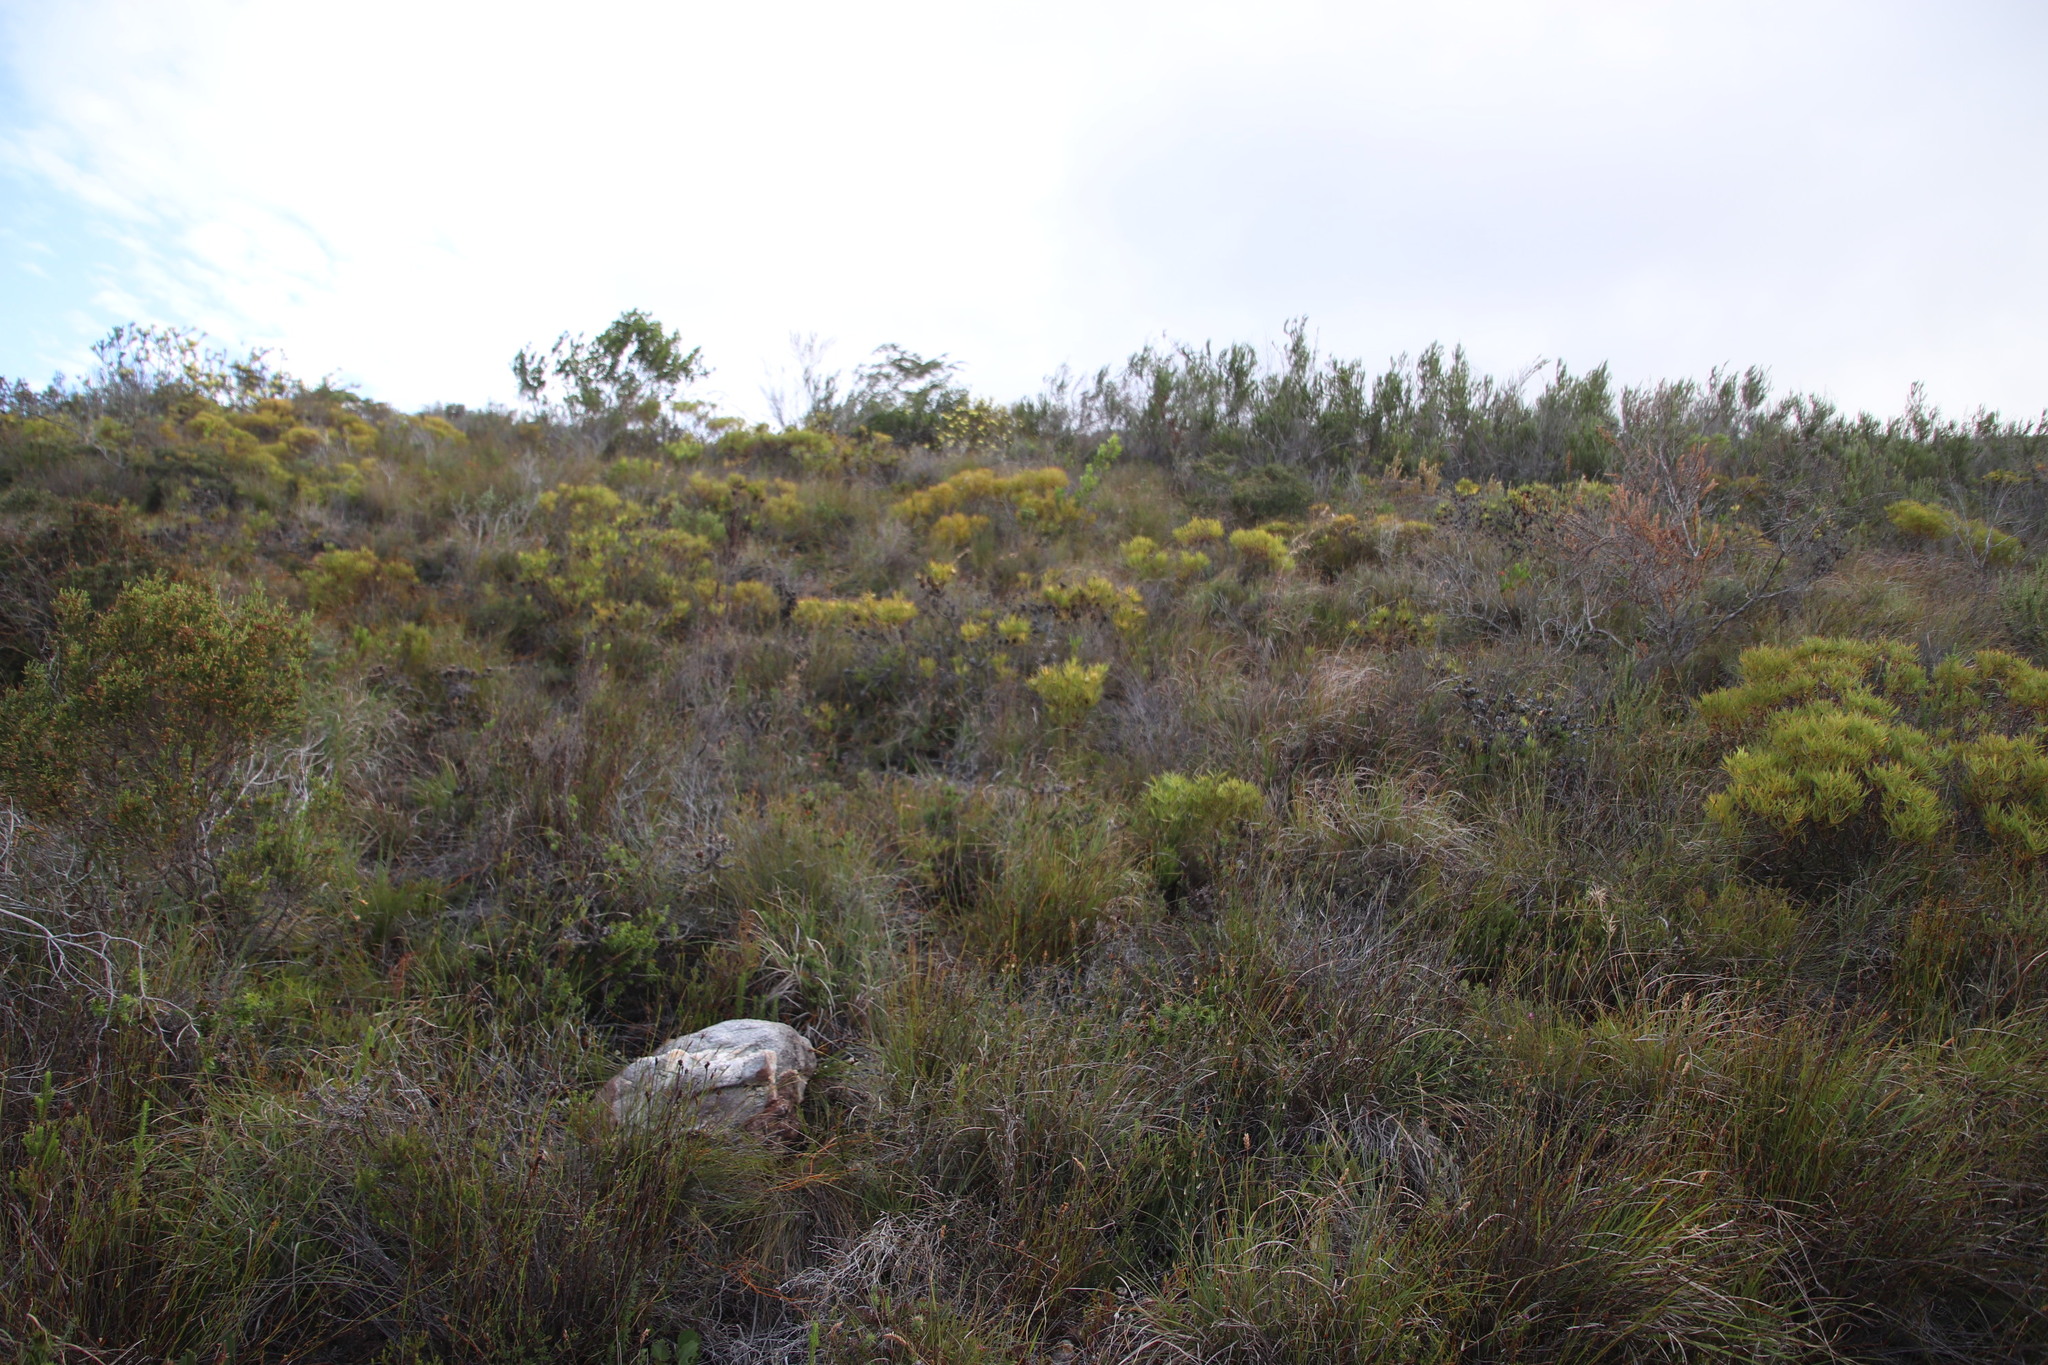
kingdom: Plantae
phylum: Tracheophyta
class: Magnoliopsida
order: Proteales
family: Proteaceae
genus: Leucadendron
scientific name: Leucadendron salignum
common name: Common sunshine conebush
